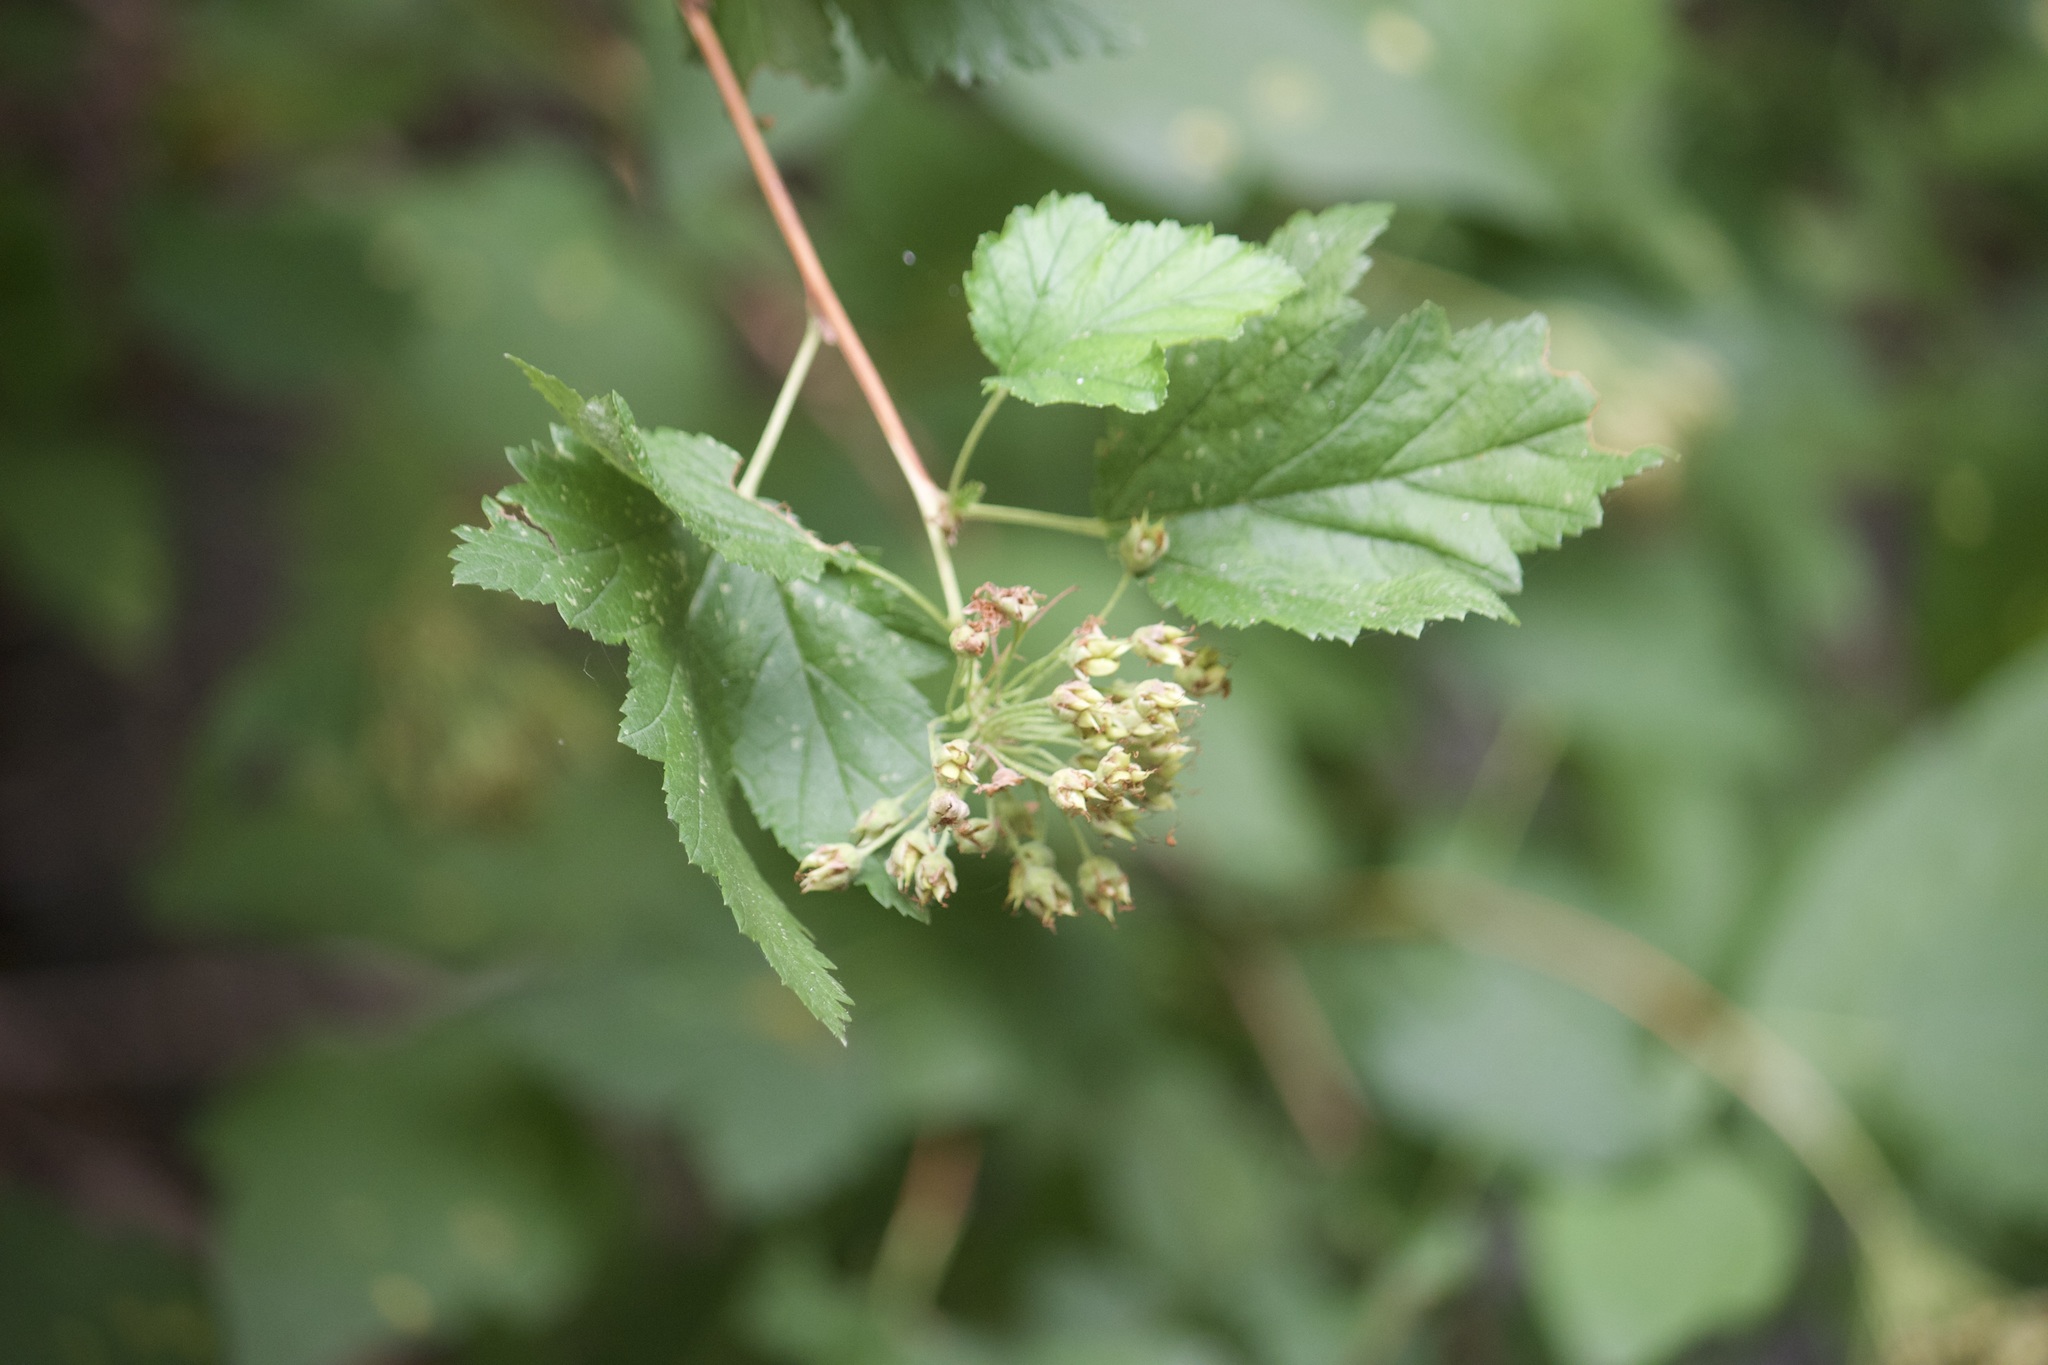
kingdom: Plantae
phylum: Tracheophyta
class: Magnoliopsida
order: Rosales
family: Rosaceae
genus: Physocarpus
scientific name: Physocarpus capitatus
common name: Pacific ninebark
